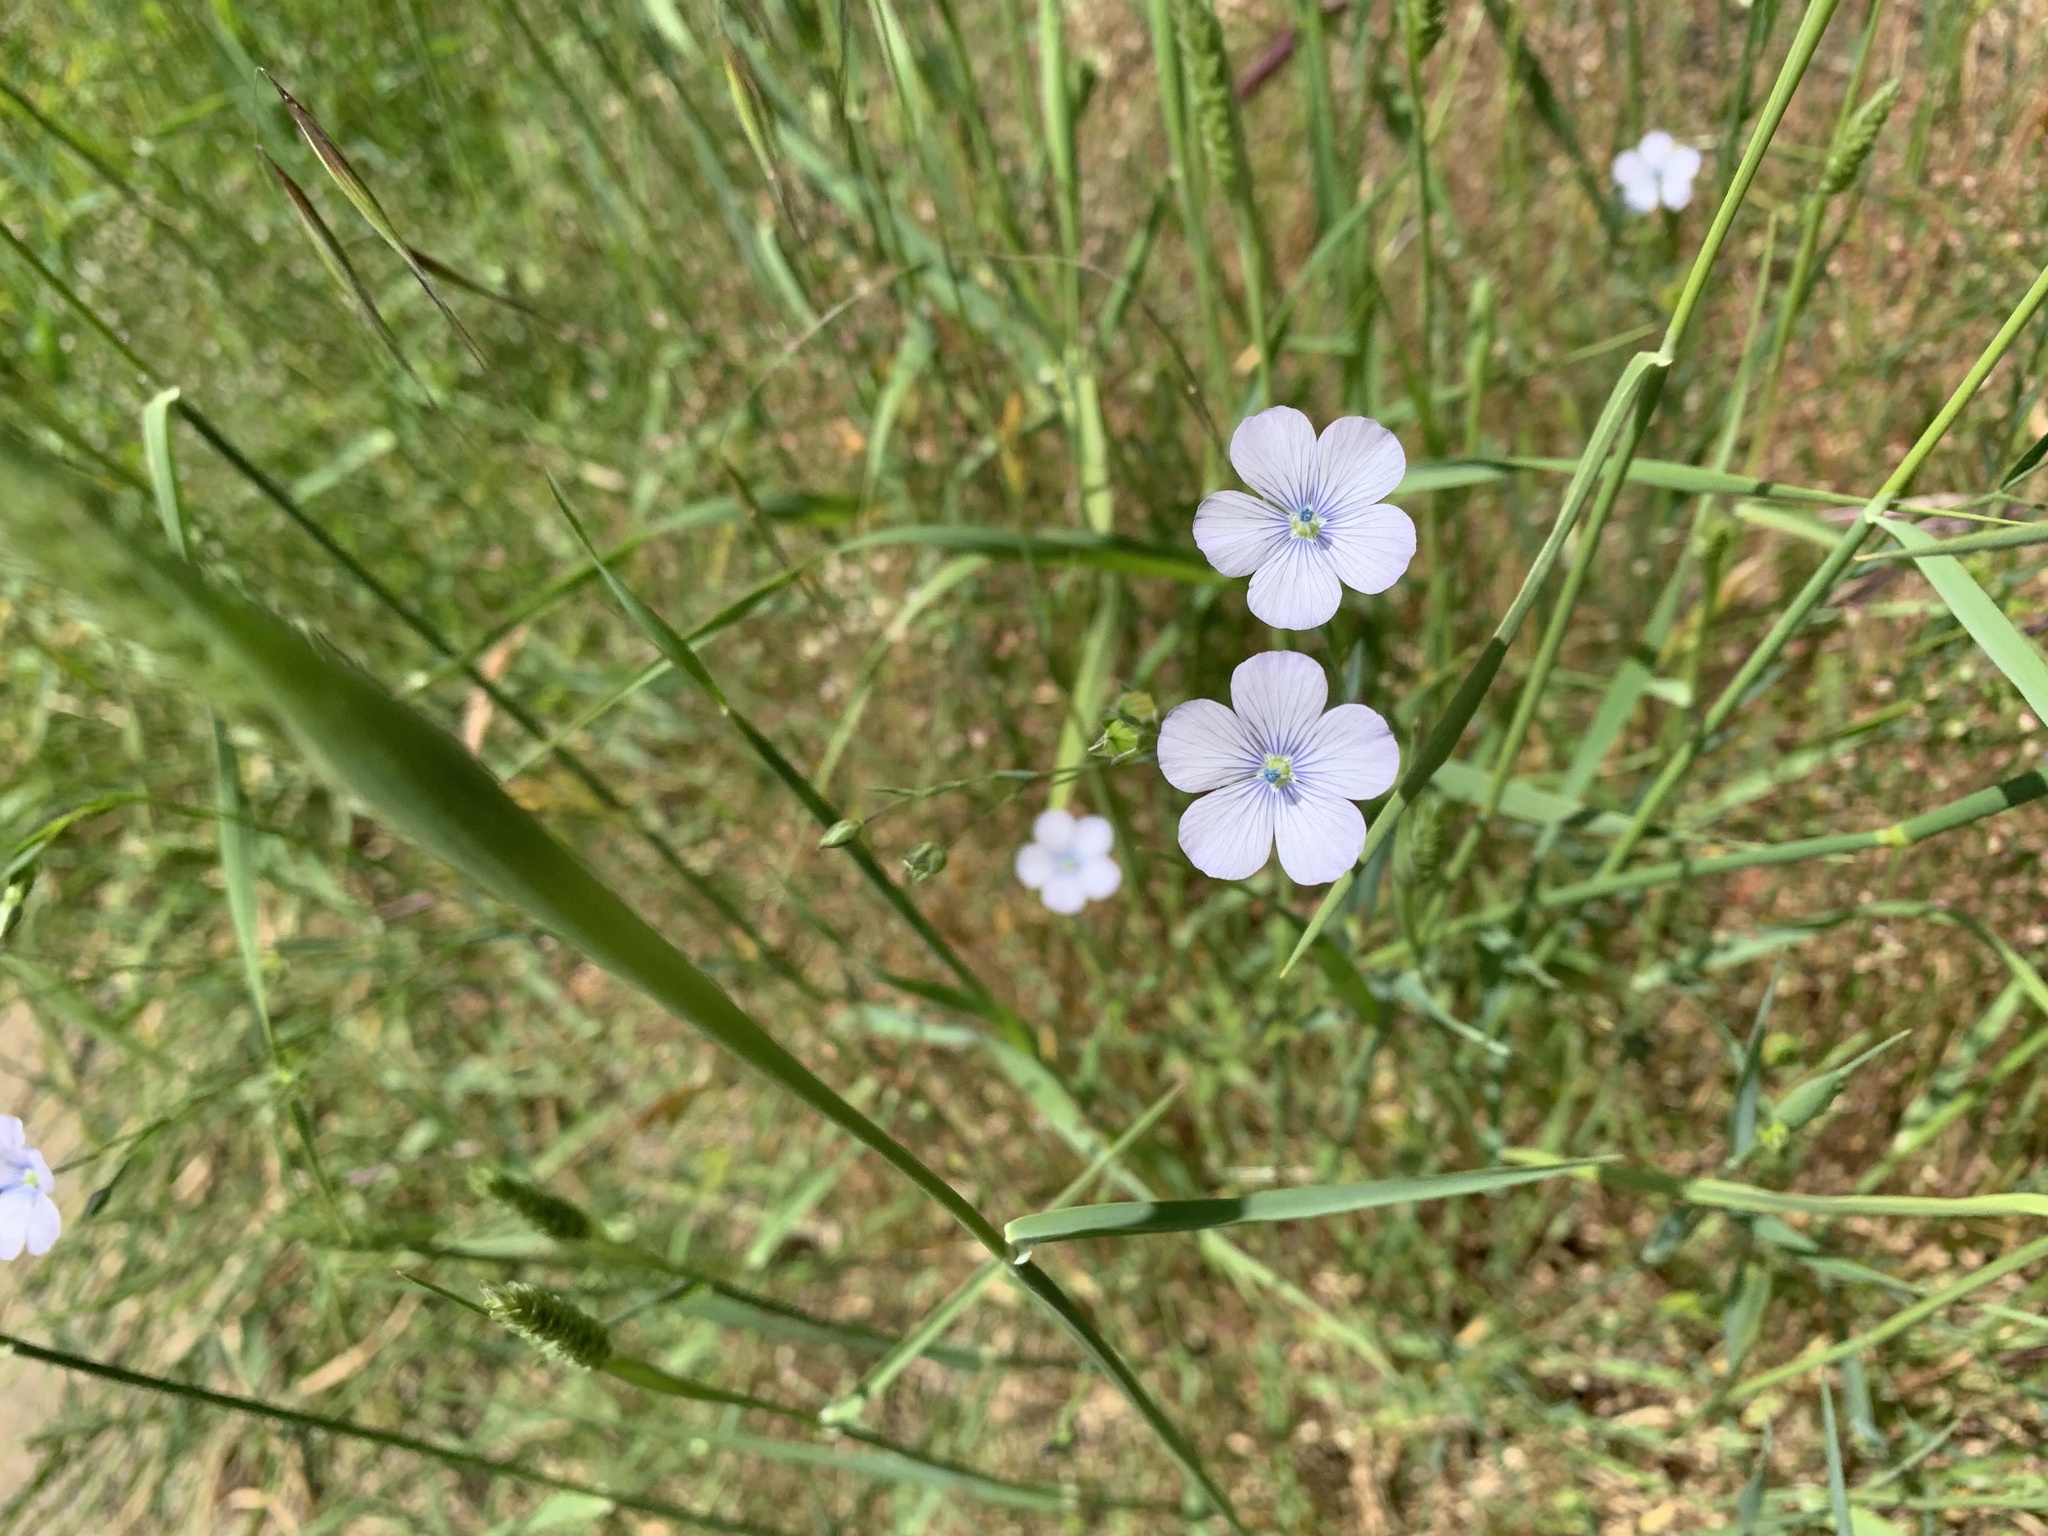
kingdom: Plantae
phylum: Tracheophyta
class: Magnoliopsida
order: Malpighiales
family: Linaceae
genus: Linum
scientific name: Linum bienne
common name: Pale flax
